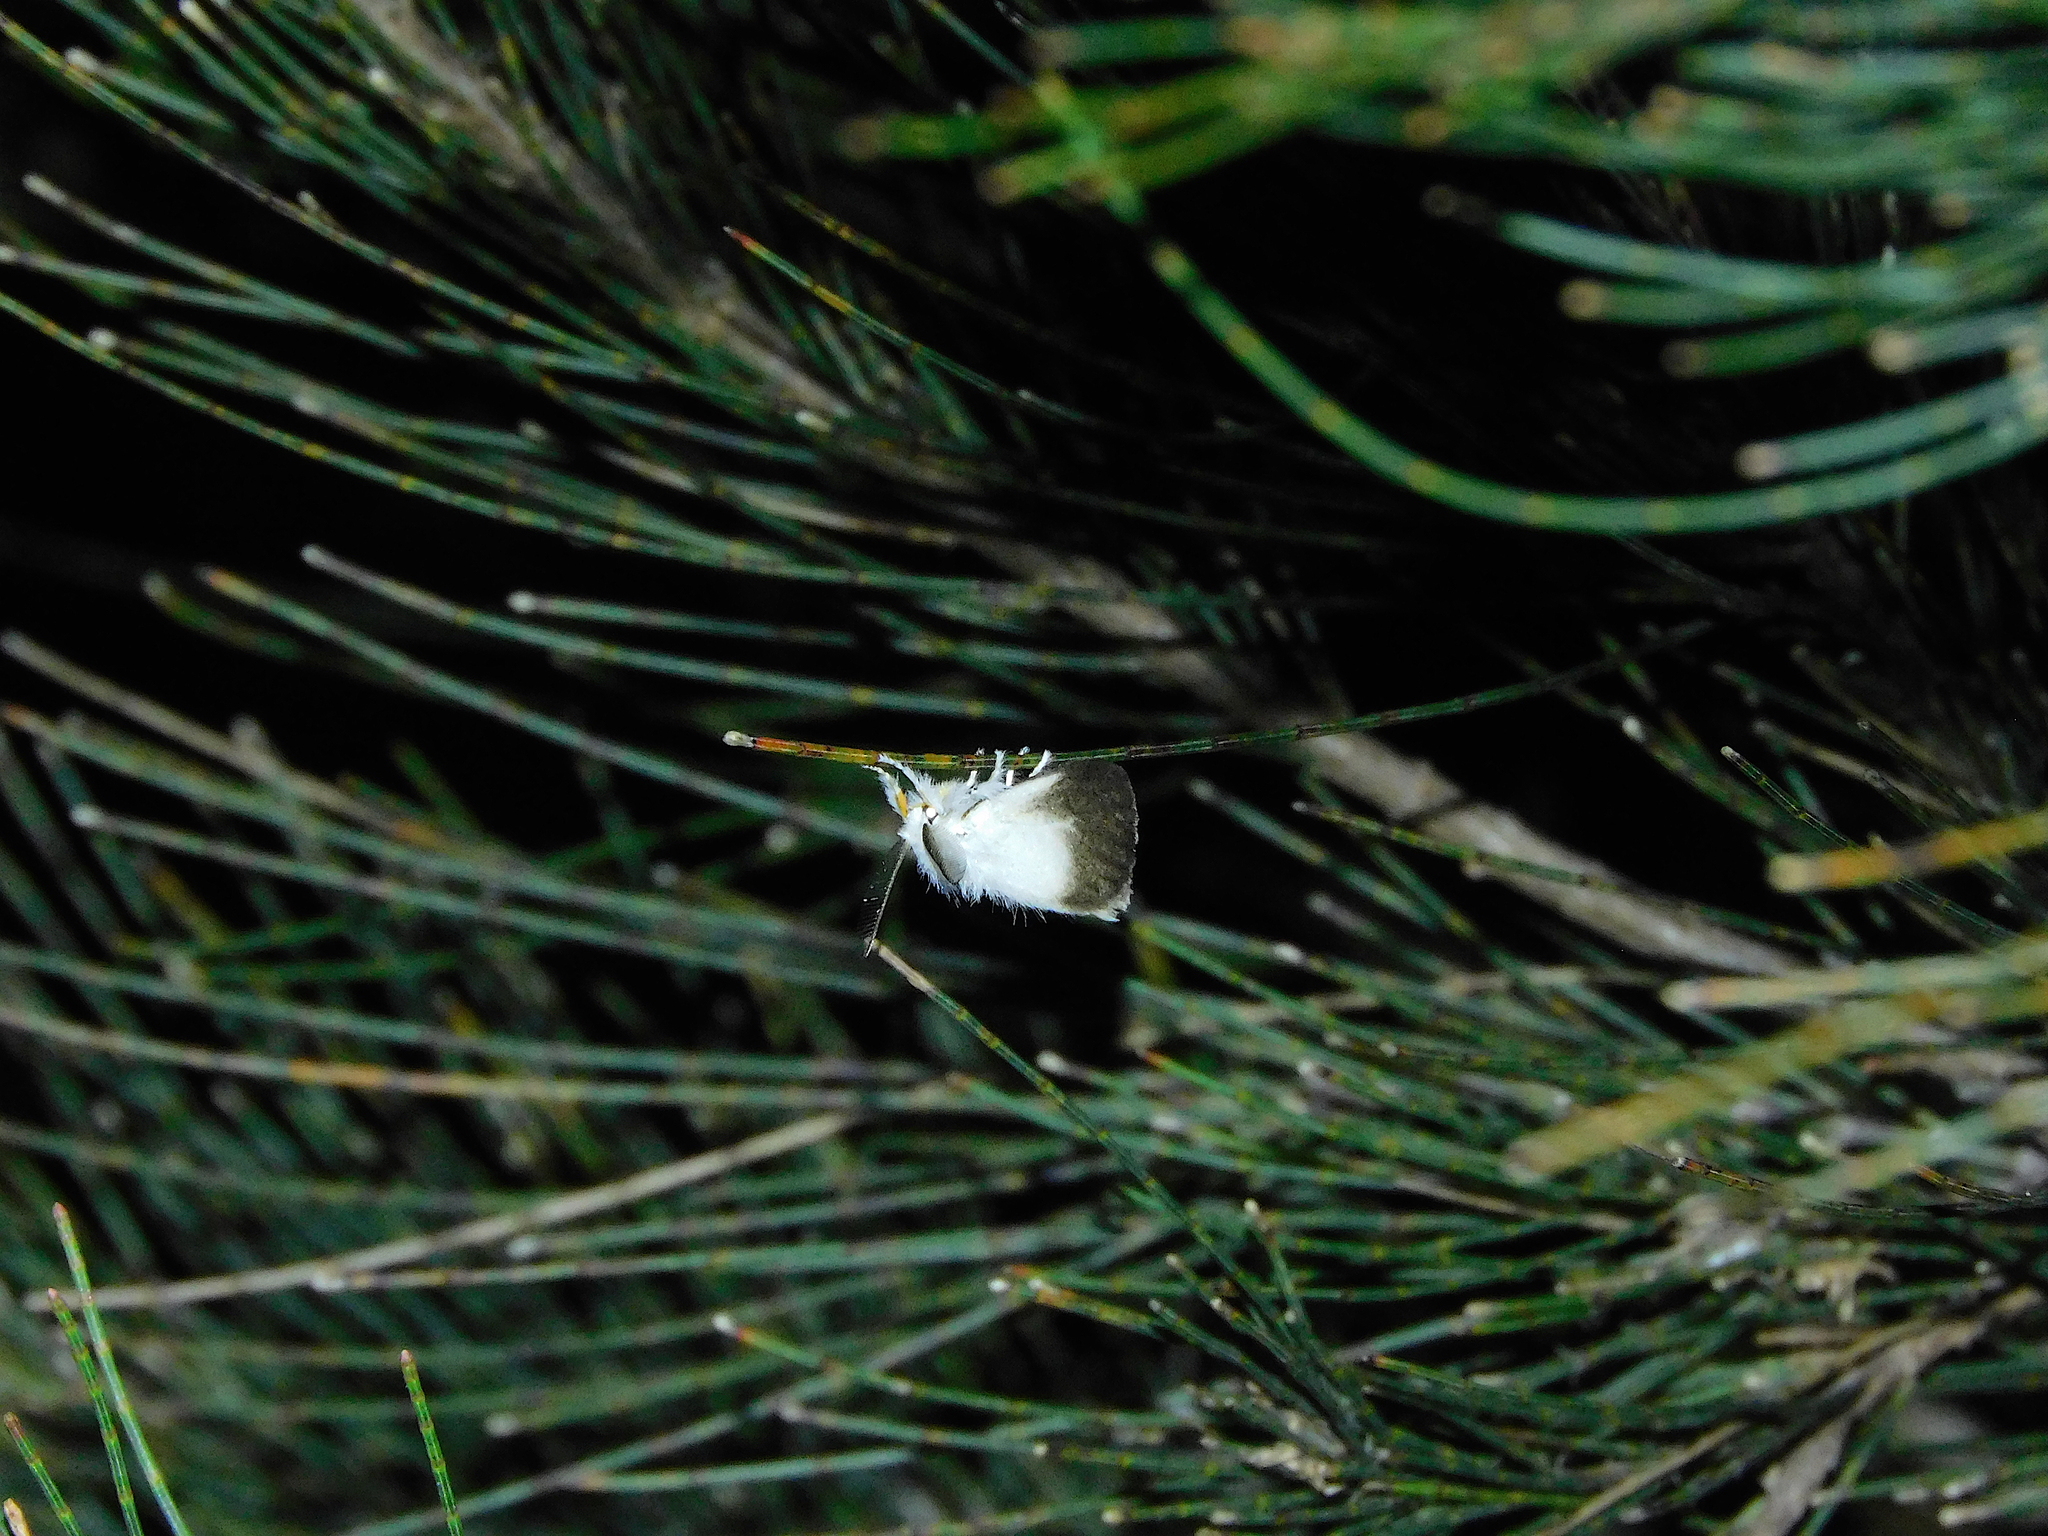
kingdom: Animalia
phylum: Arthropoda
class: Insecta
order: Lepidoptera
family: Erebidae
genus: Acyphas
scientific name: Acyphas semiochrea
